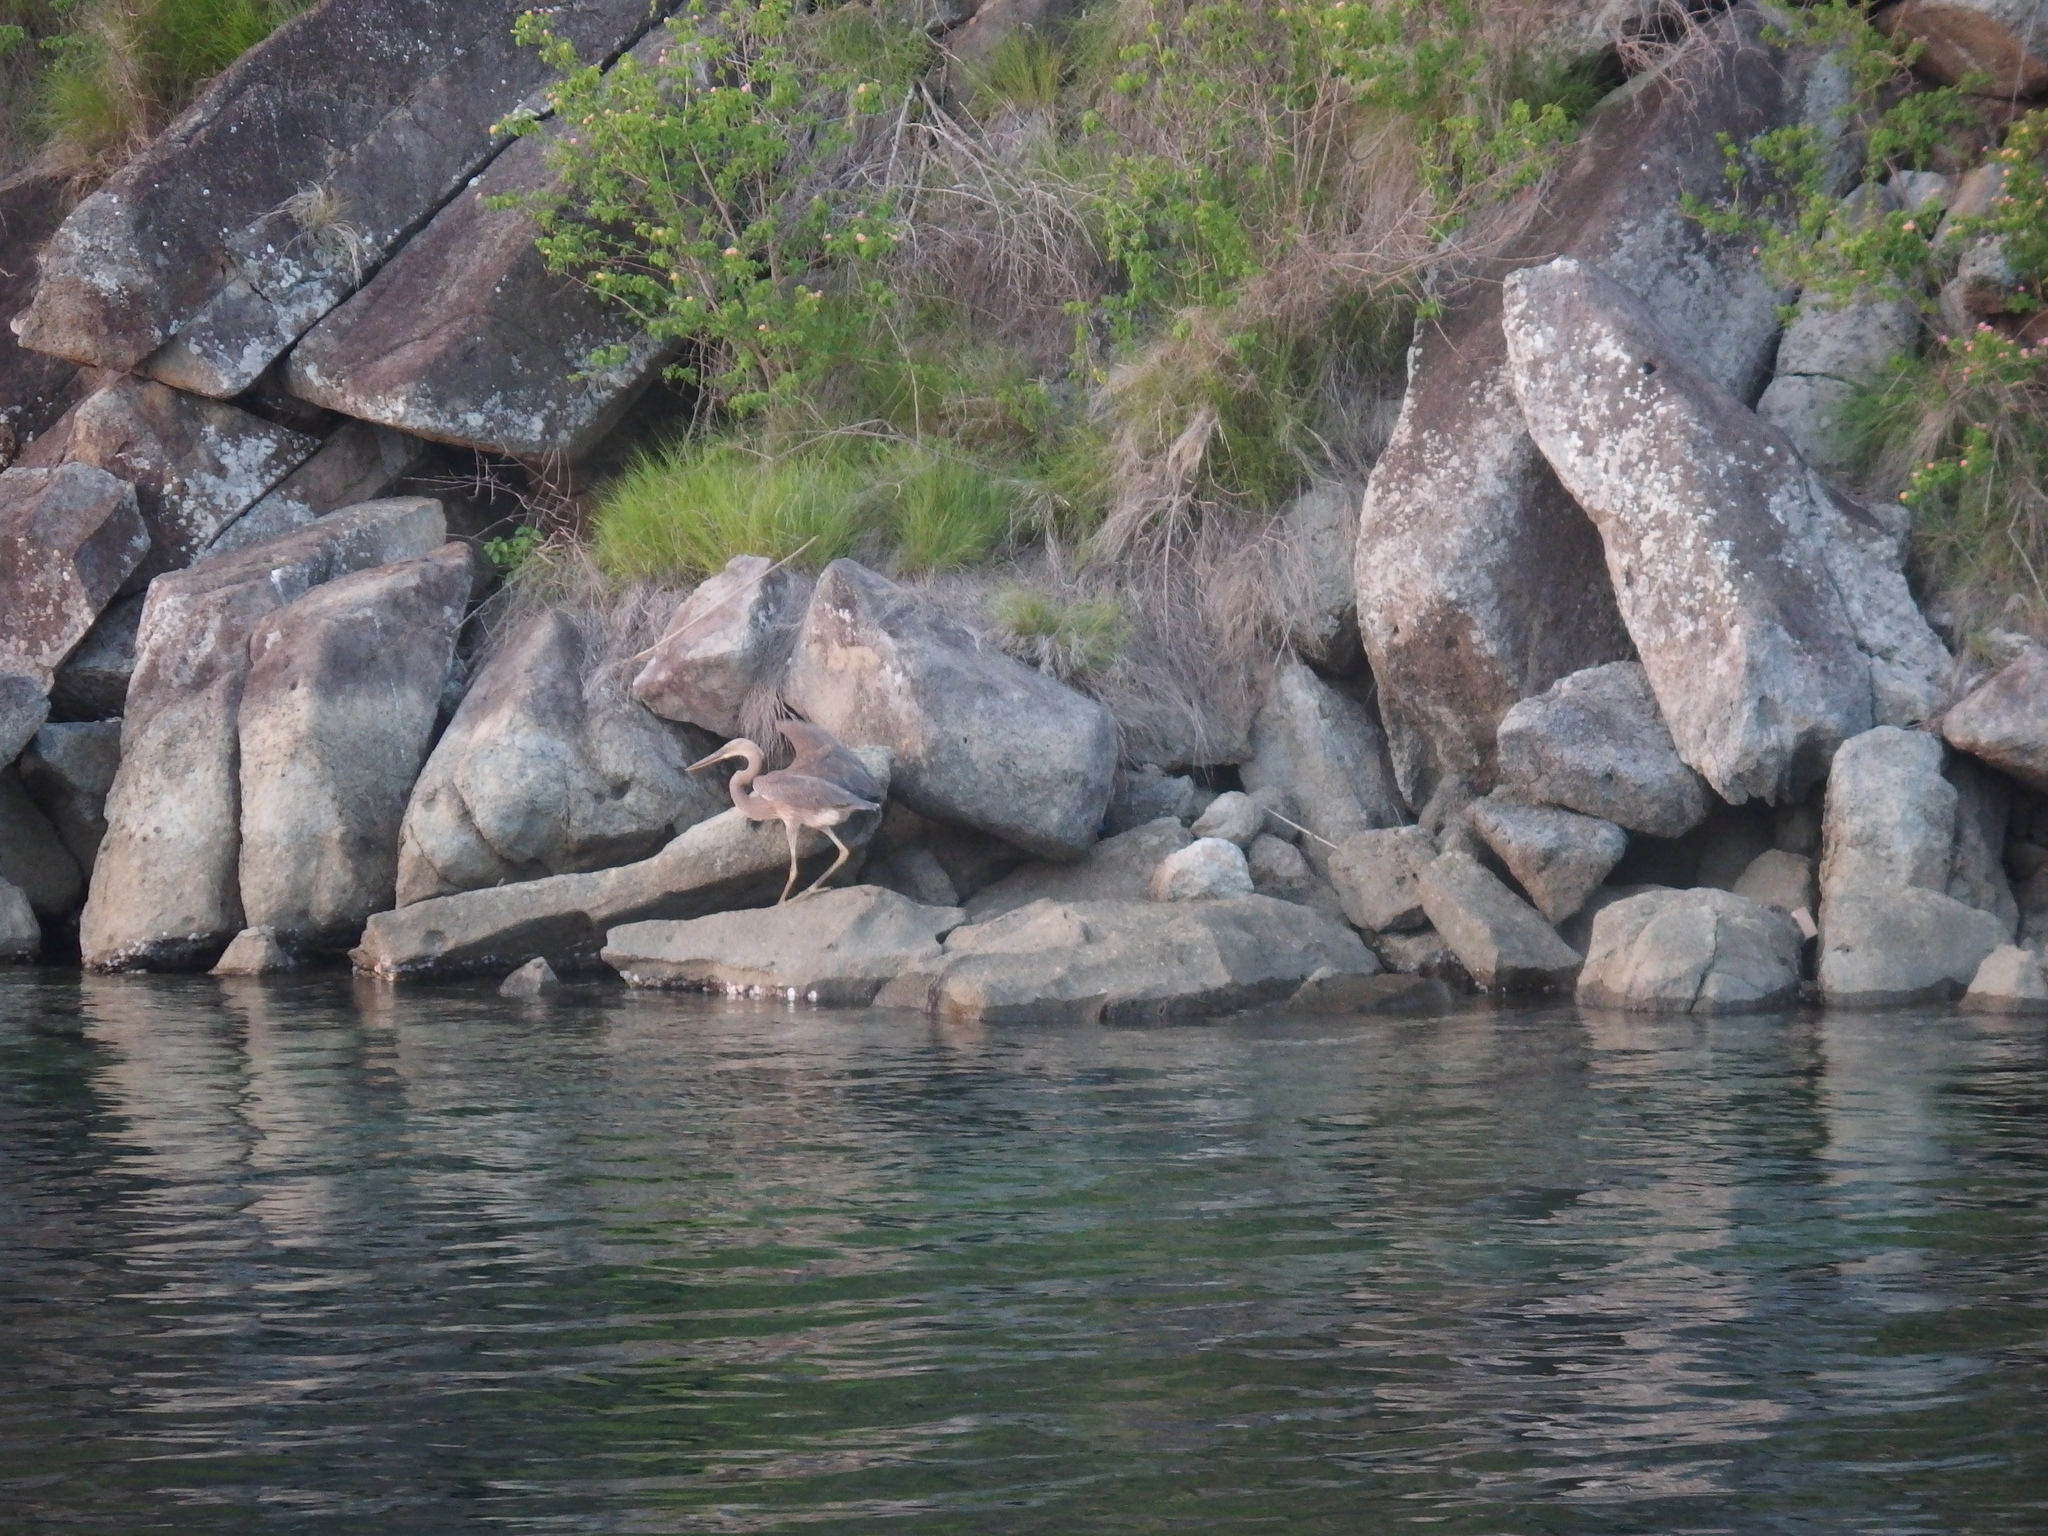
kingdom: Animalia
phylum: Chordata
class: Aves
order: Pelecaniformes
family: Ardeidae
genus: Ardea
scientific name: Ardea sumatrana
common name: Great-billed heron
